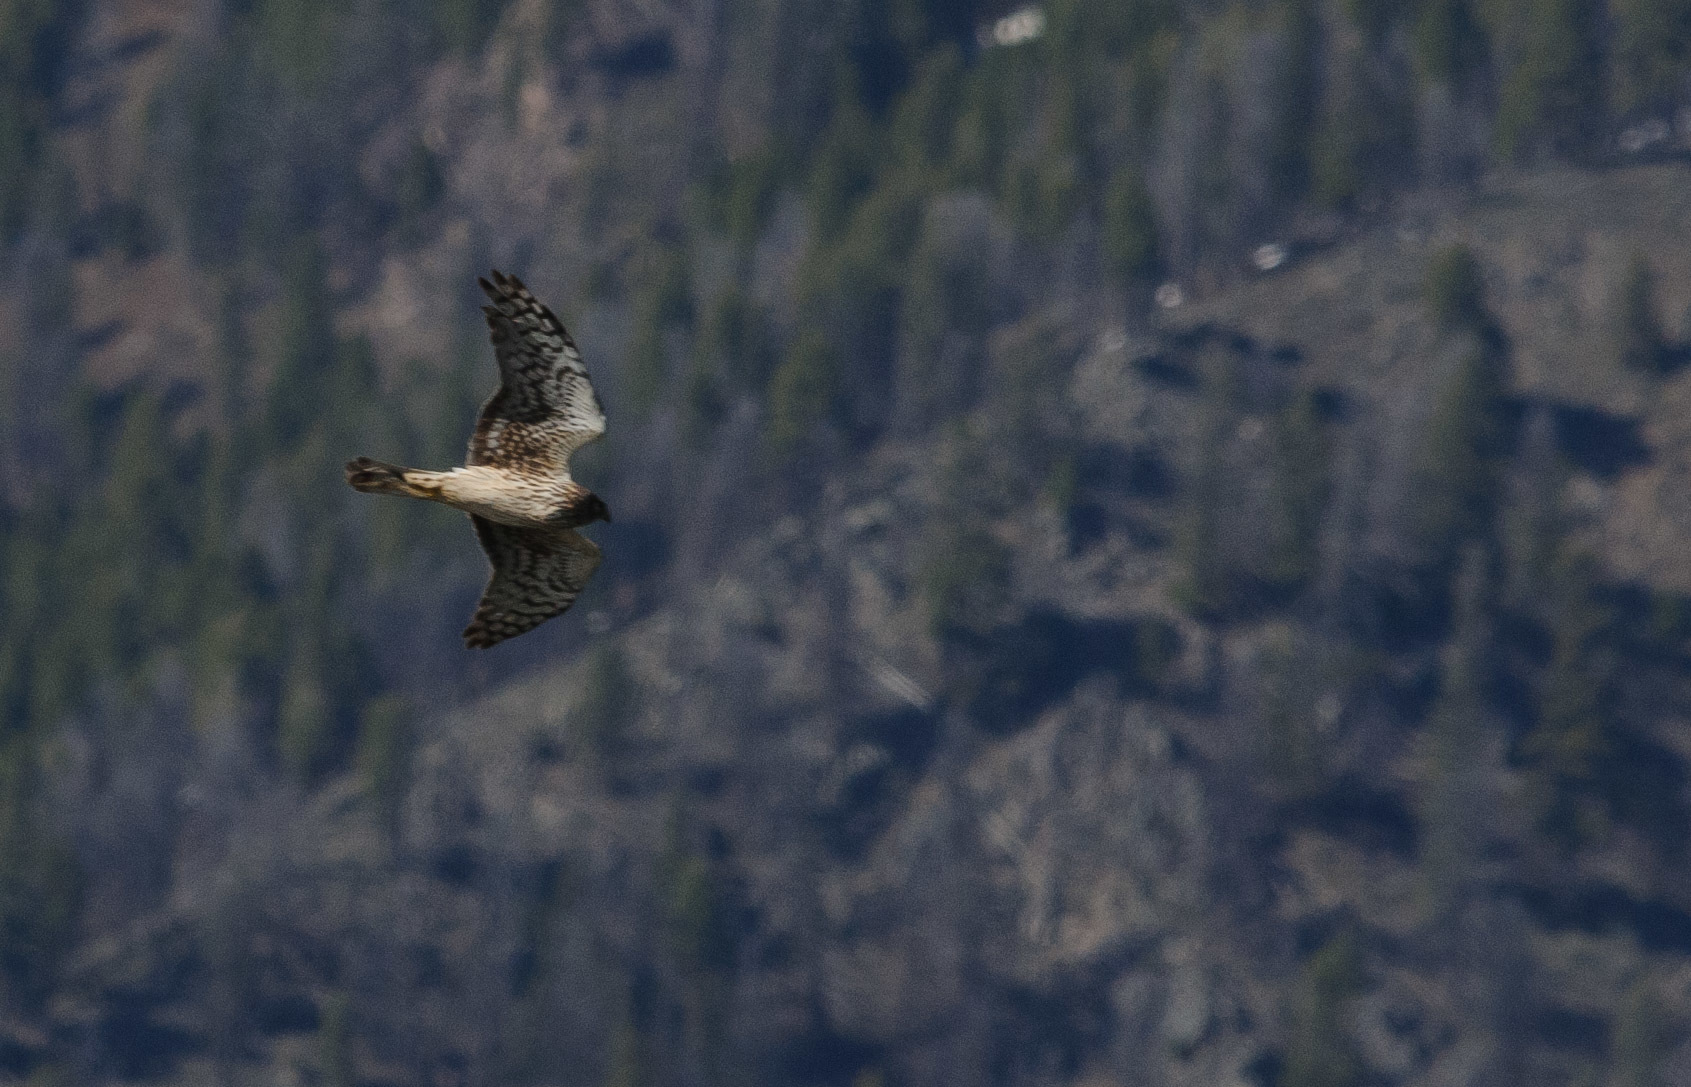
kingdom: Animalia
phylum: Chordata
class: Aves
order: Accipitriformes
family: Accipitridae
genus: Circus
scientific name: Circus cyaneus
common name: Hen harrier
